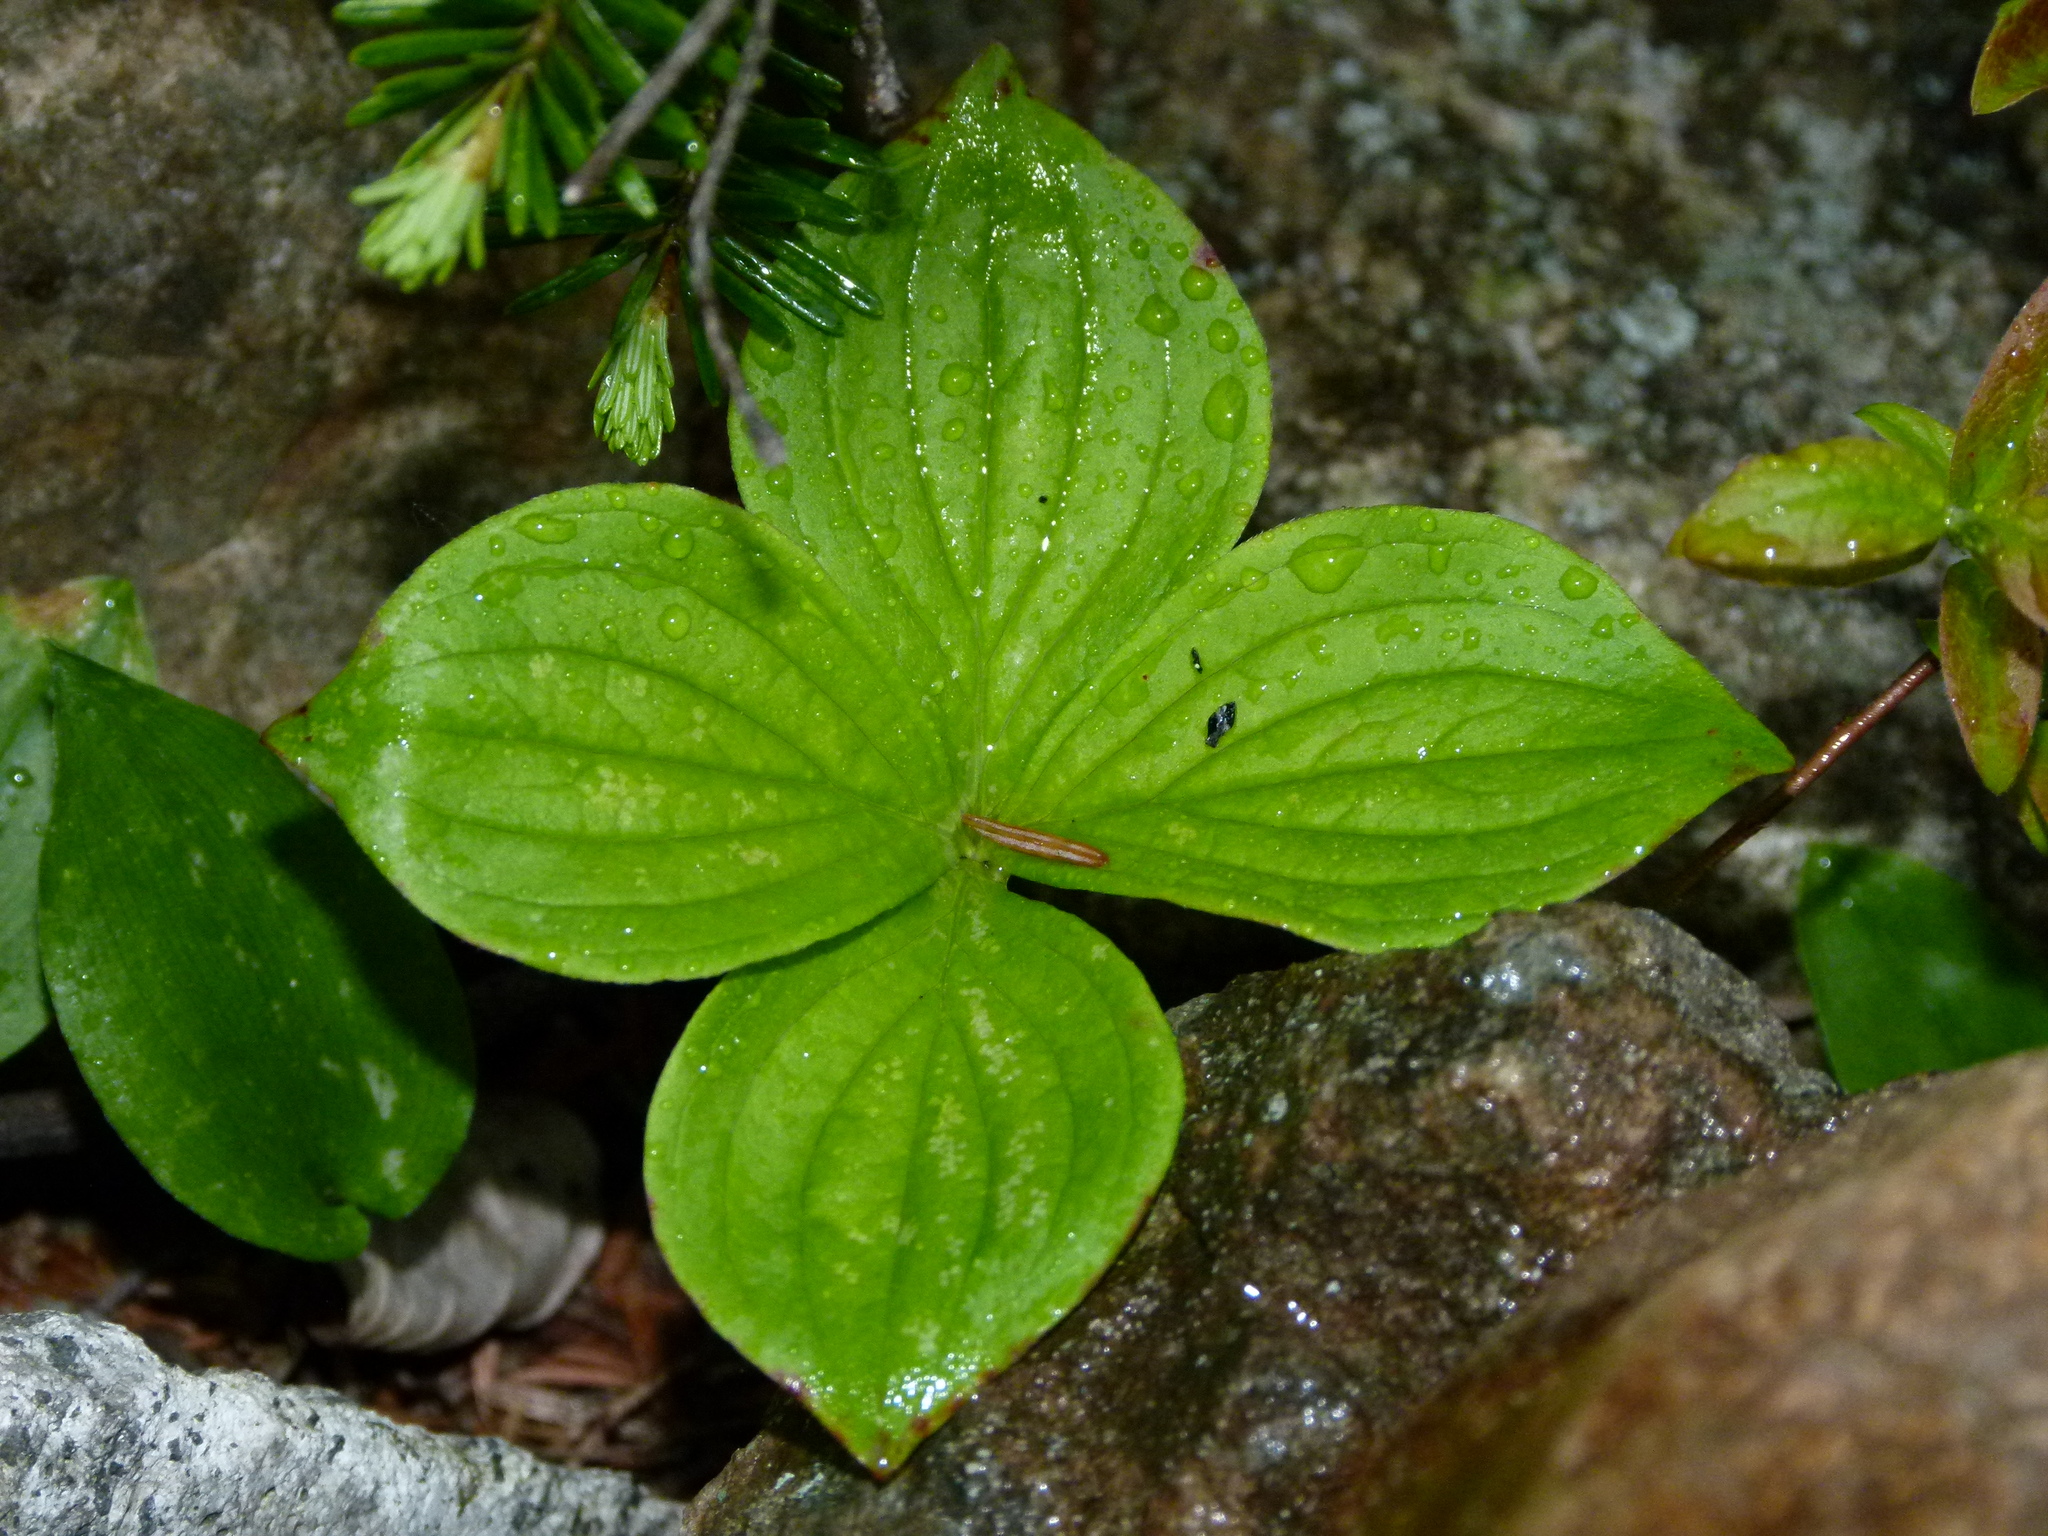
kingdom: Plantae
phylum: Tracheophyta
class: Magnoliopsida
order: Cornales
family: Cornaceae
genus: Cornus
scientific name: Cornus canadensis
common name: Creeping dogwood
